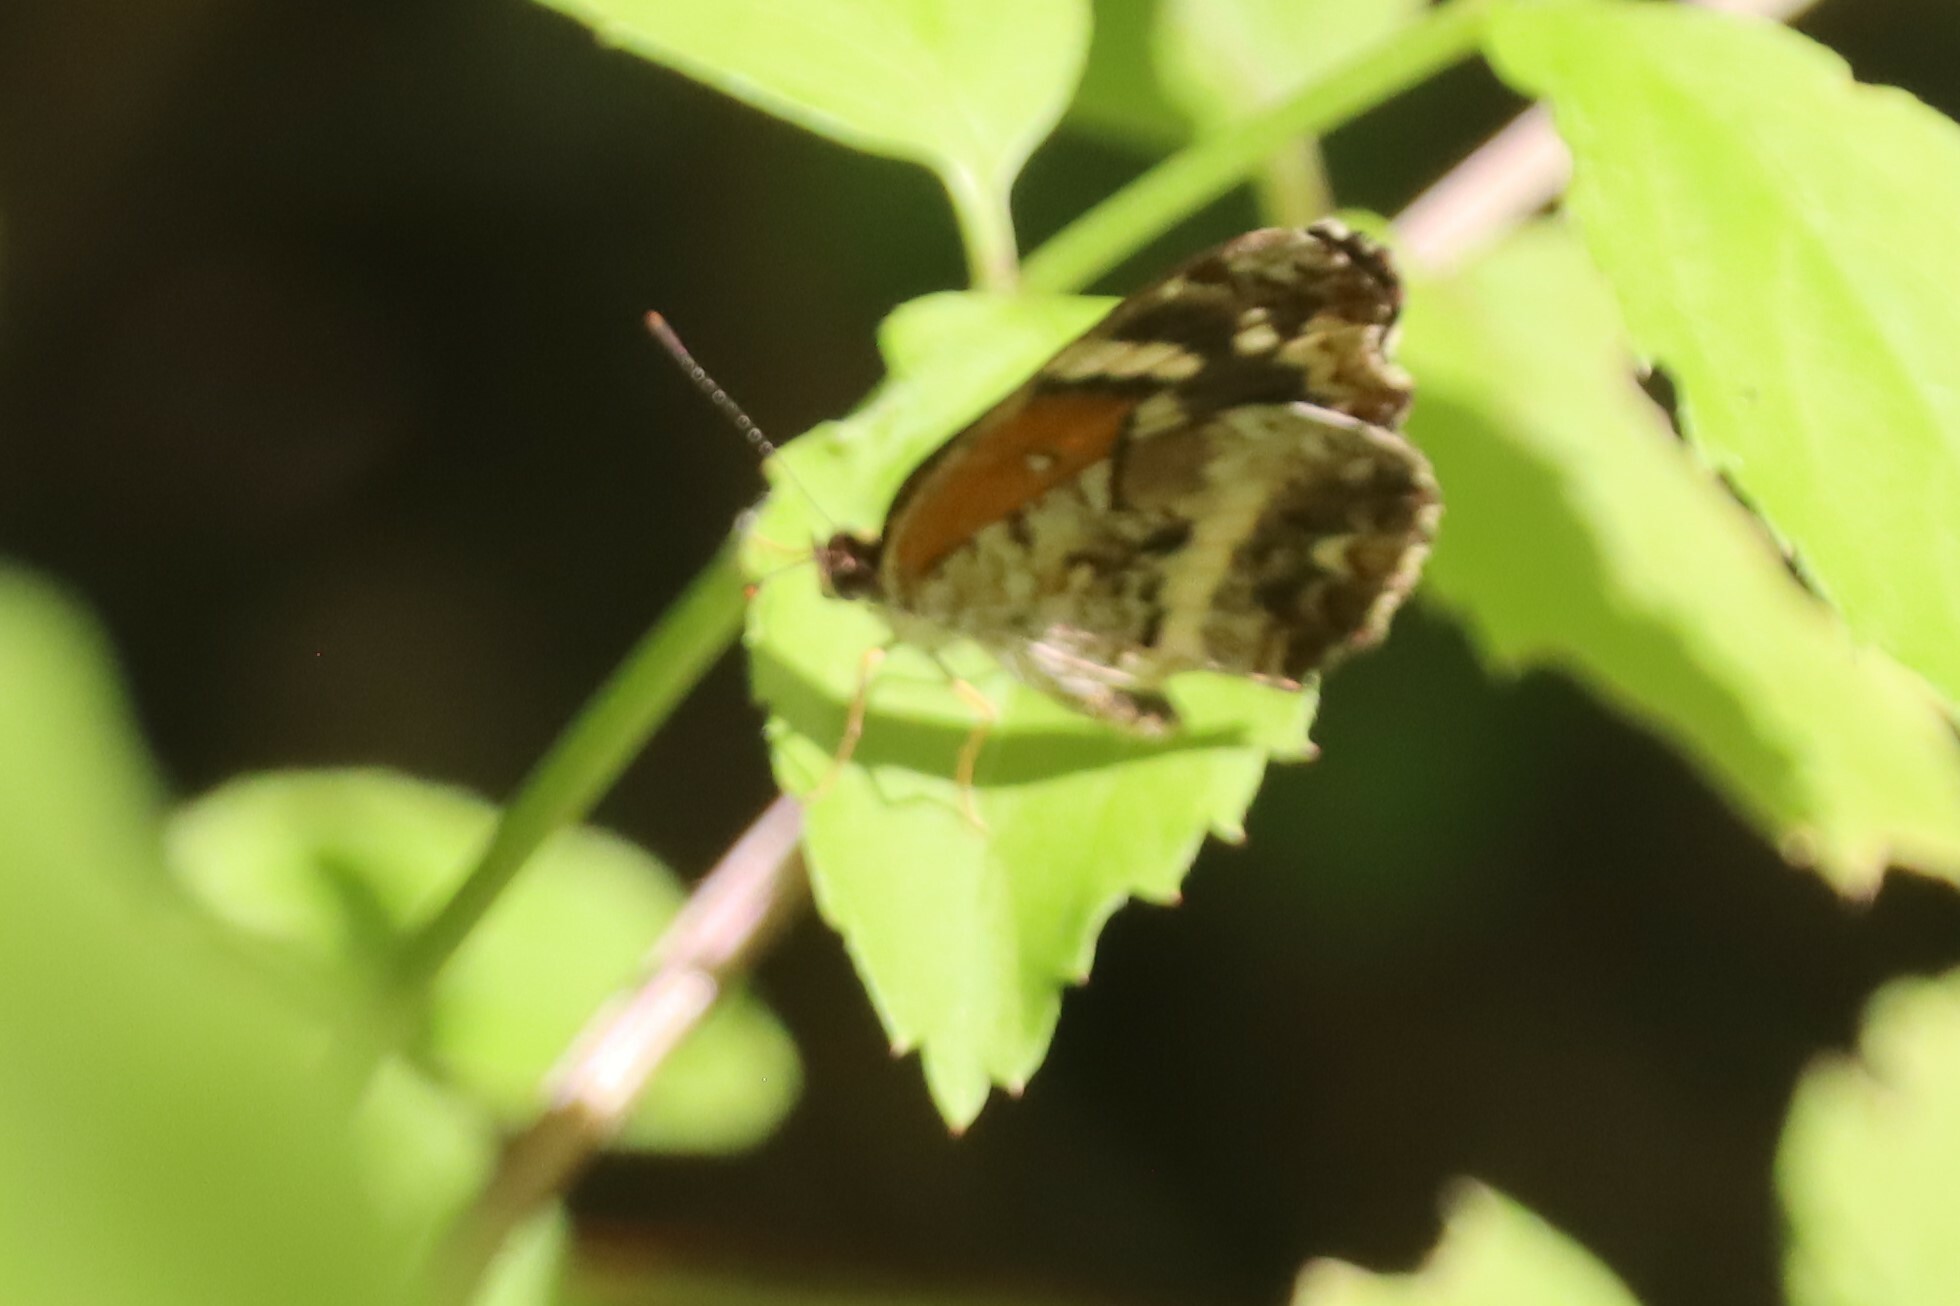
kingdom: Animalia
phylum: Arthropoda
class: Insecta
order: Lepidoptera
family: Nymphalidae
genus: Anthanassa
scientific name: Anthanassa taxana
